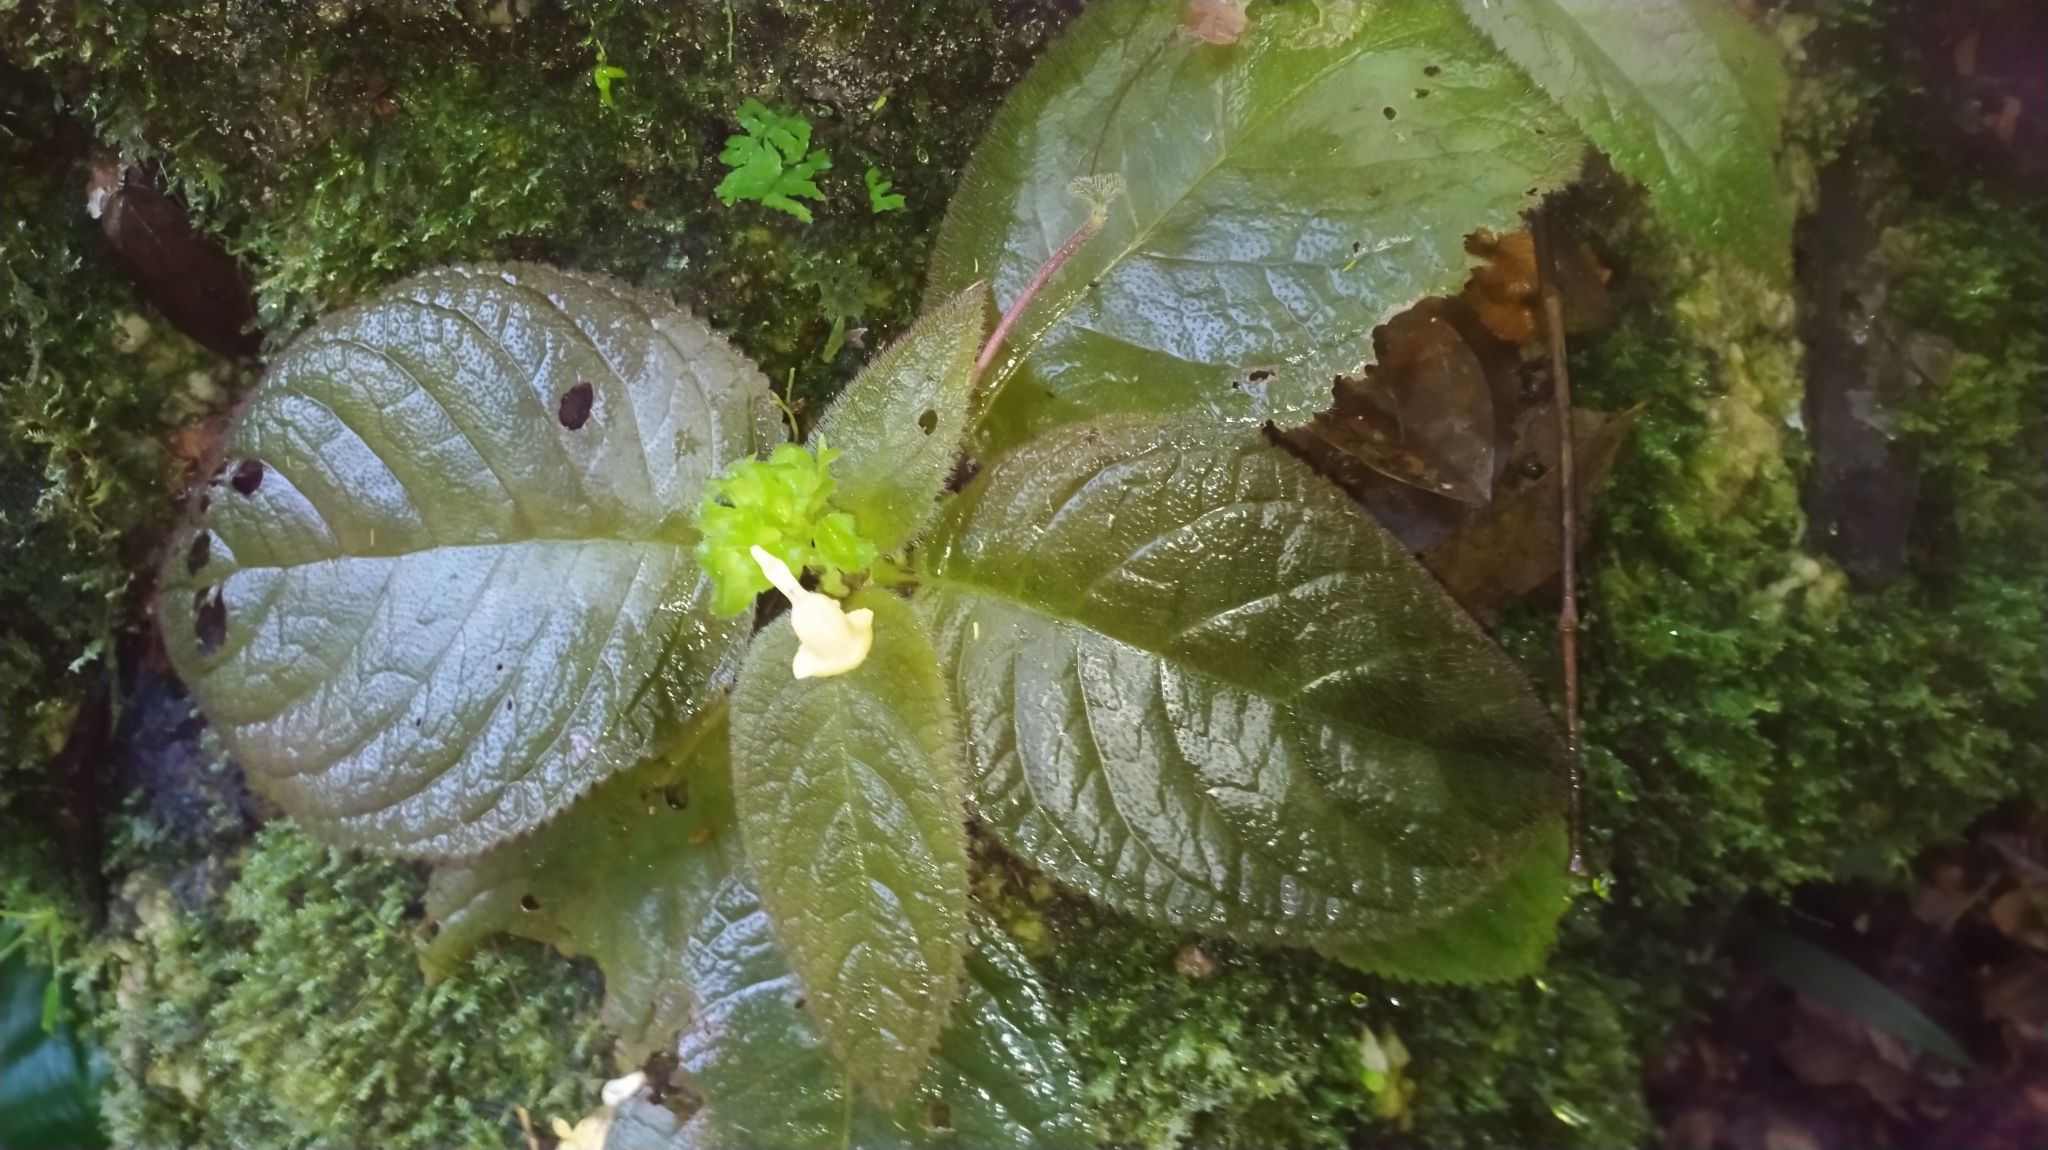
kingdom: Plantae
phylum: Tracheophyta
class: Magnoliopsida
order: Lamiales
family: Gesneriaceae
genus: Christopheria
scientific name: Christopheria xantha
